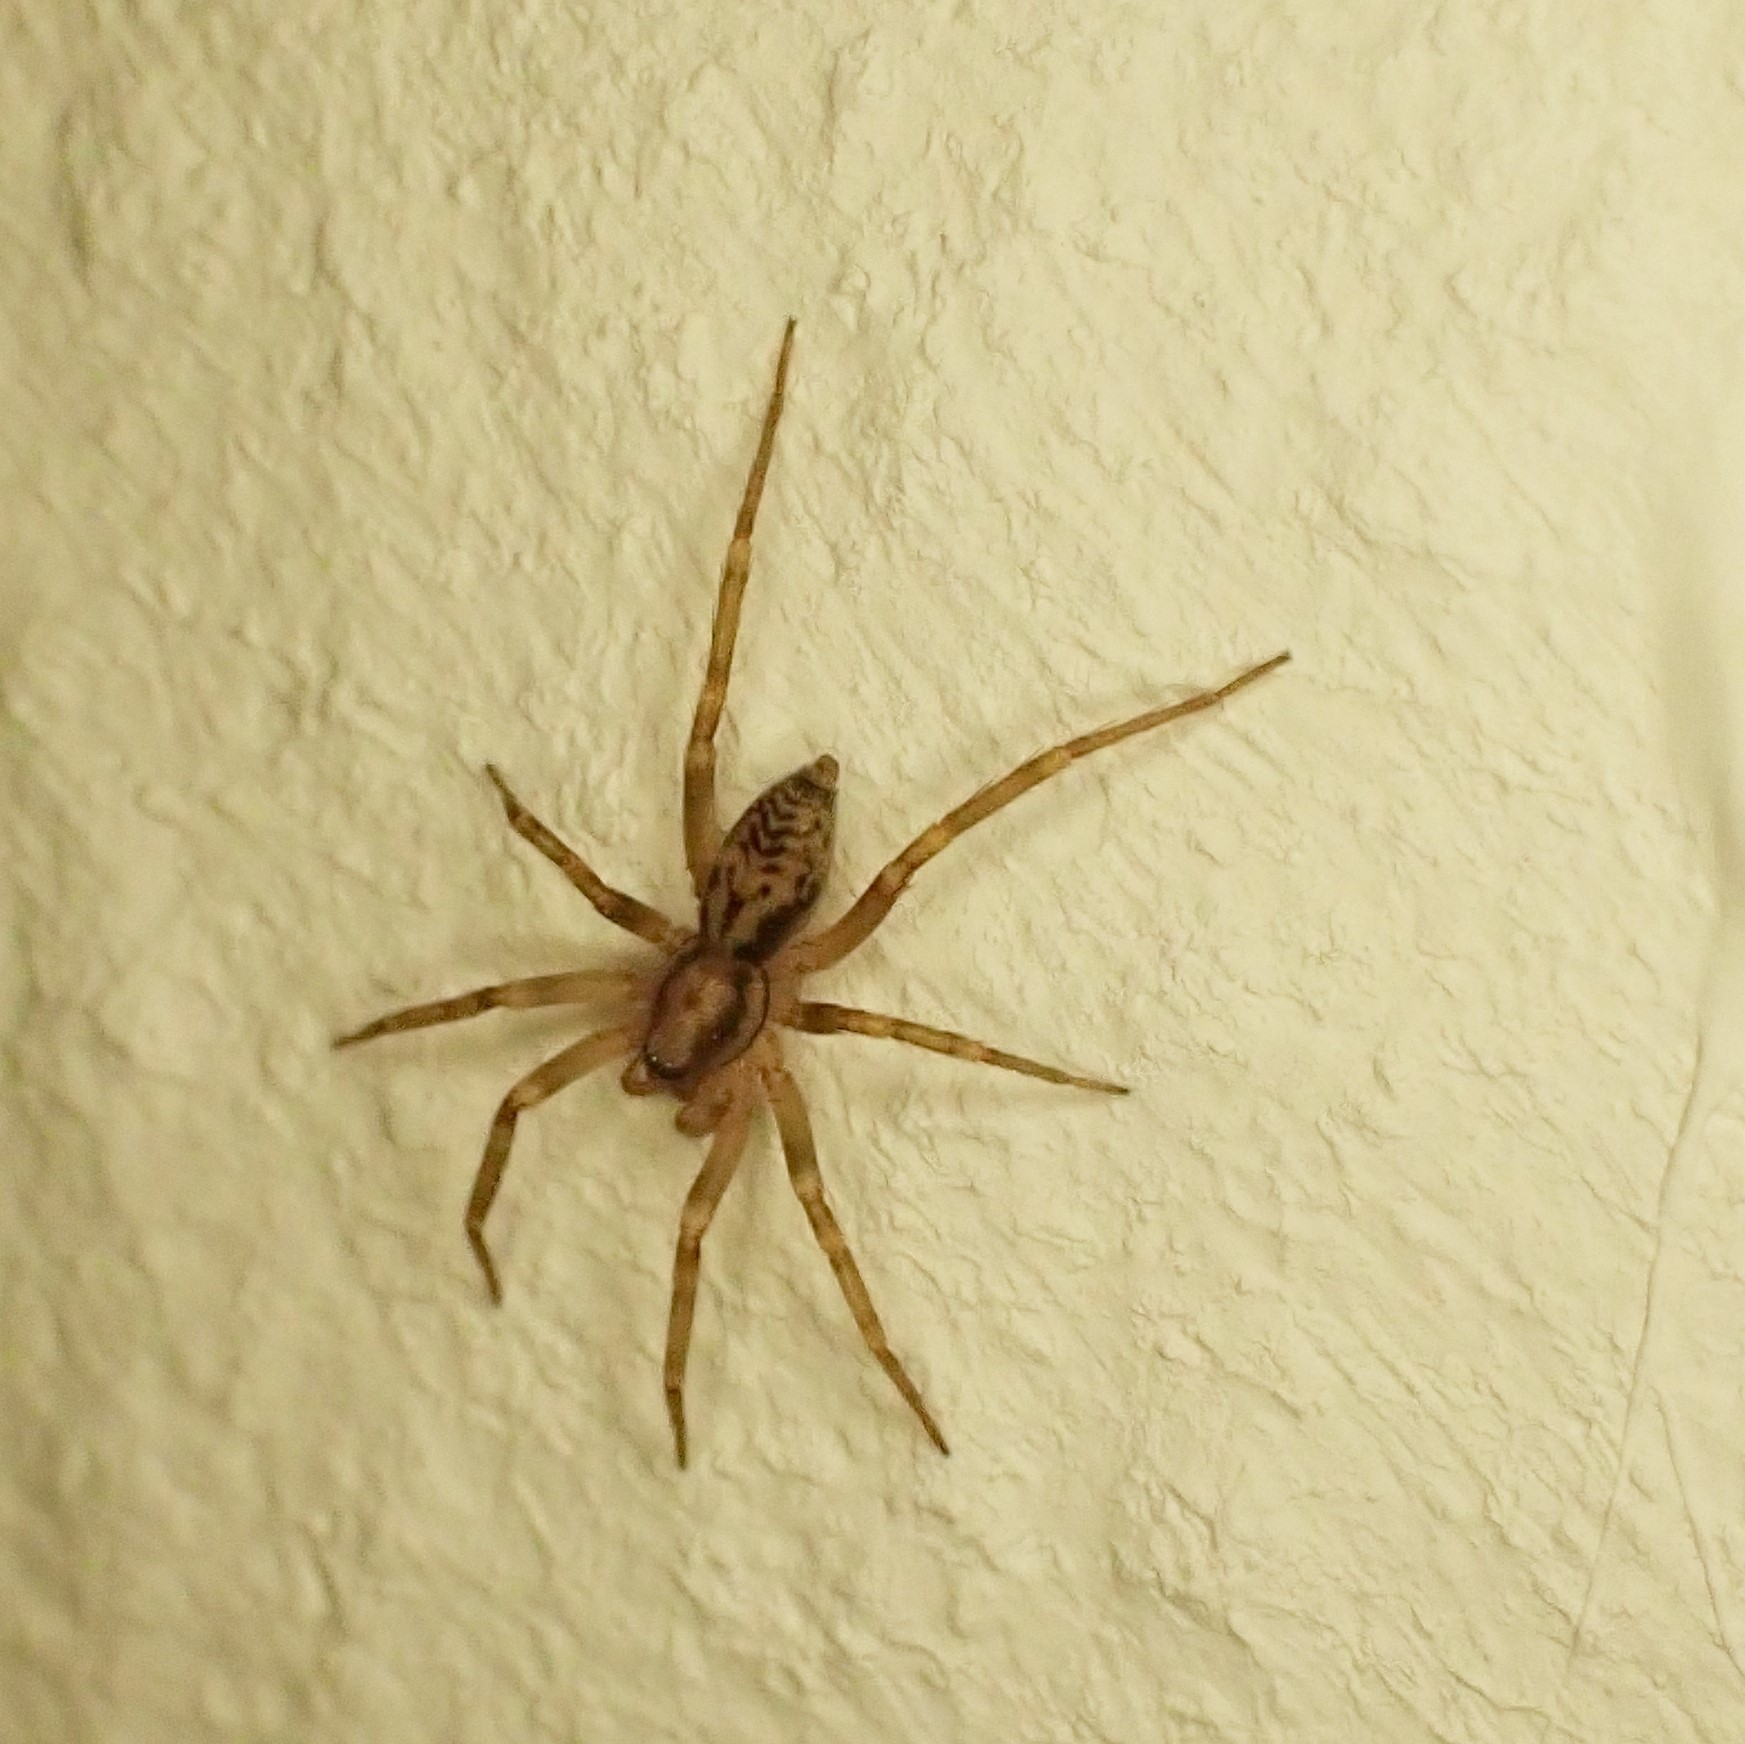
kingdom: Animalia
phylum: Arthropoda
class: Arachnida
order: Araneae
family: Liocranidae
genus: Liocranum
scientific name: Liocranum rupicola
